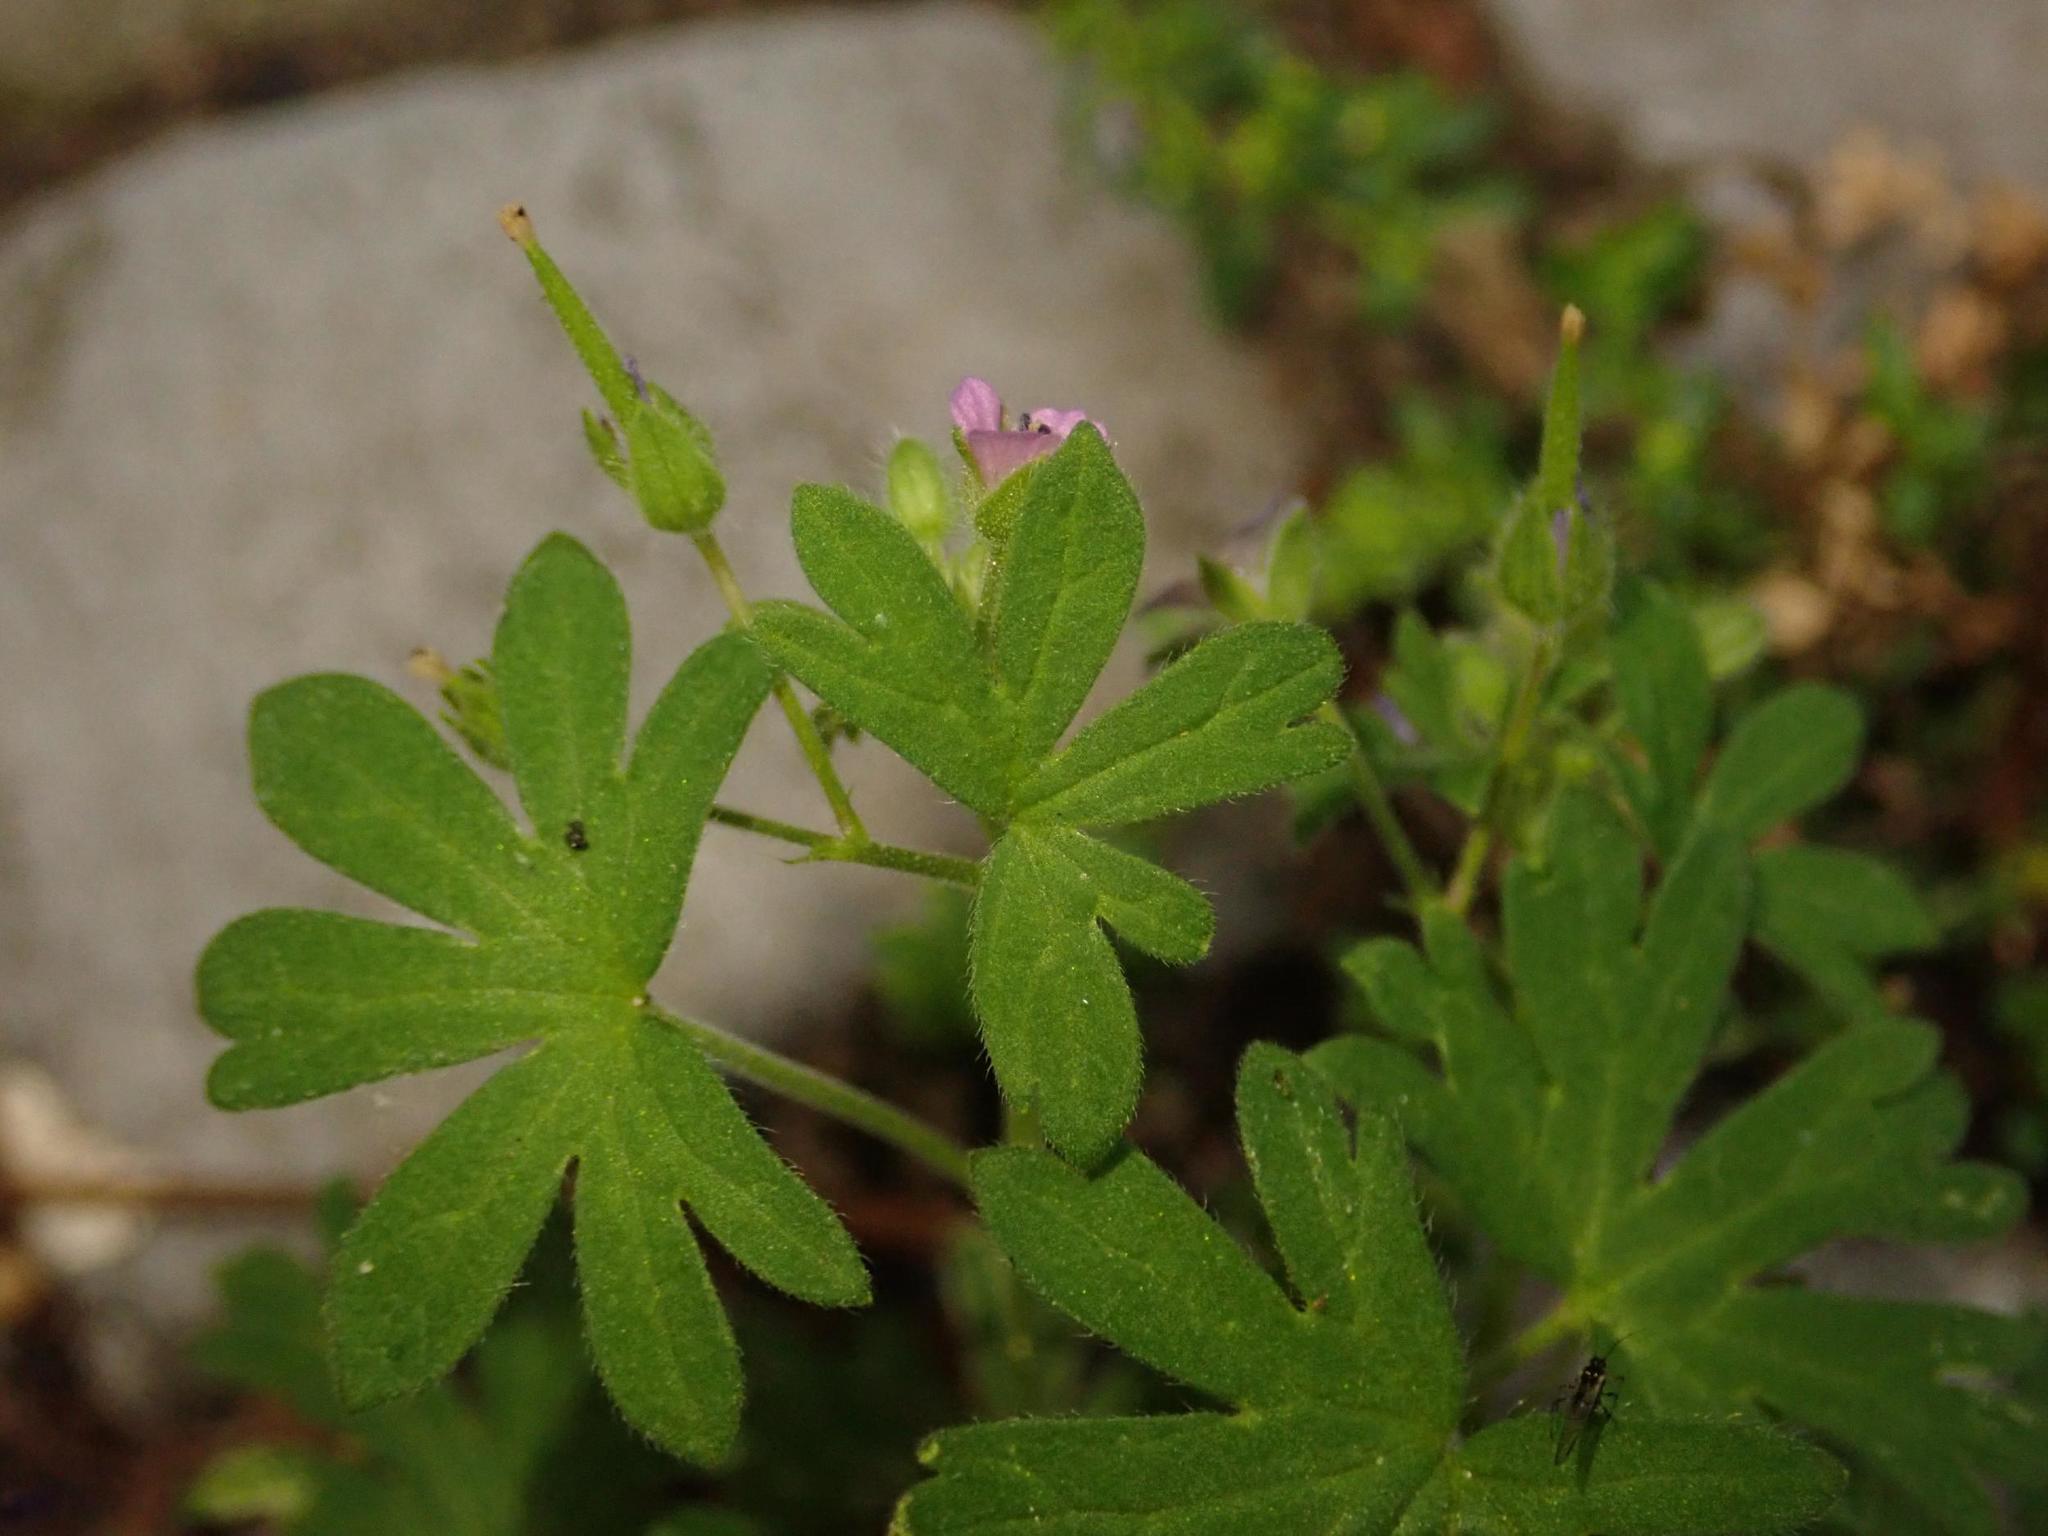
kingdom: Plantae
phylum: Tracheophyta
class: Magnoliopsida
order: Geraniales
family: Geraniaceae
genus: Geranium
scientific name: Geranium pusillum
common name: Small geranium
